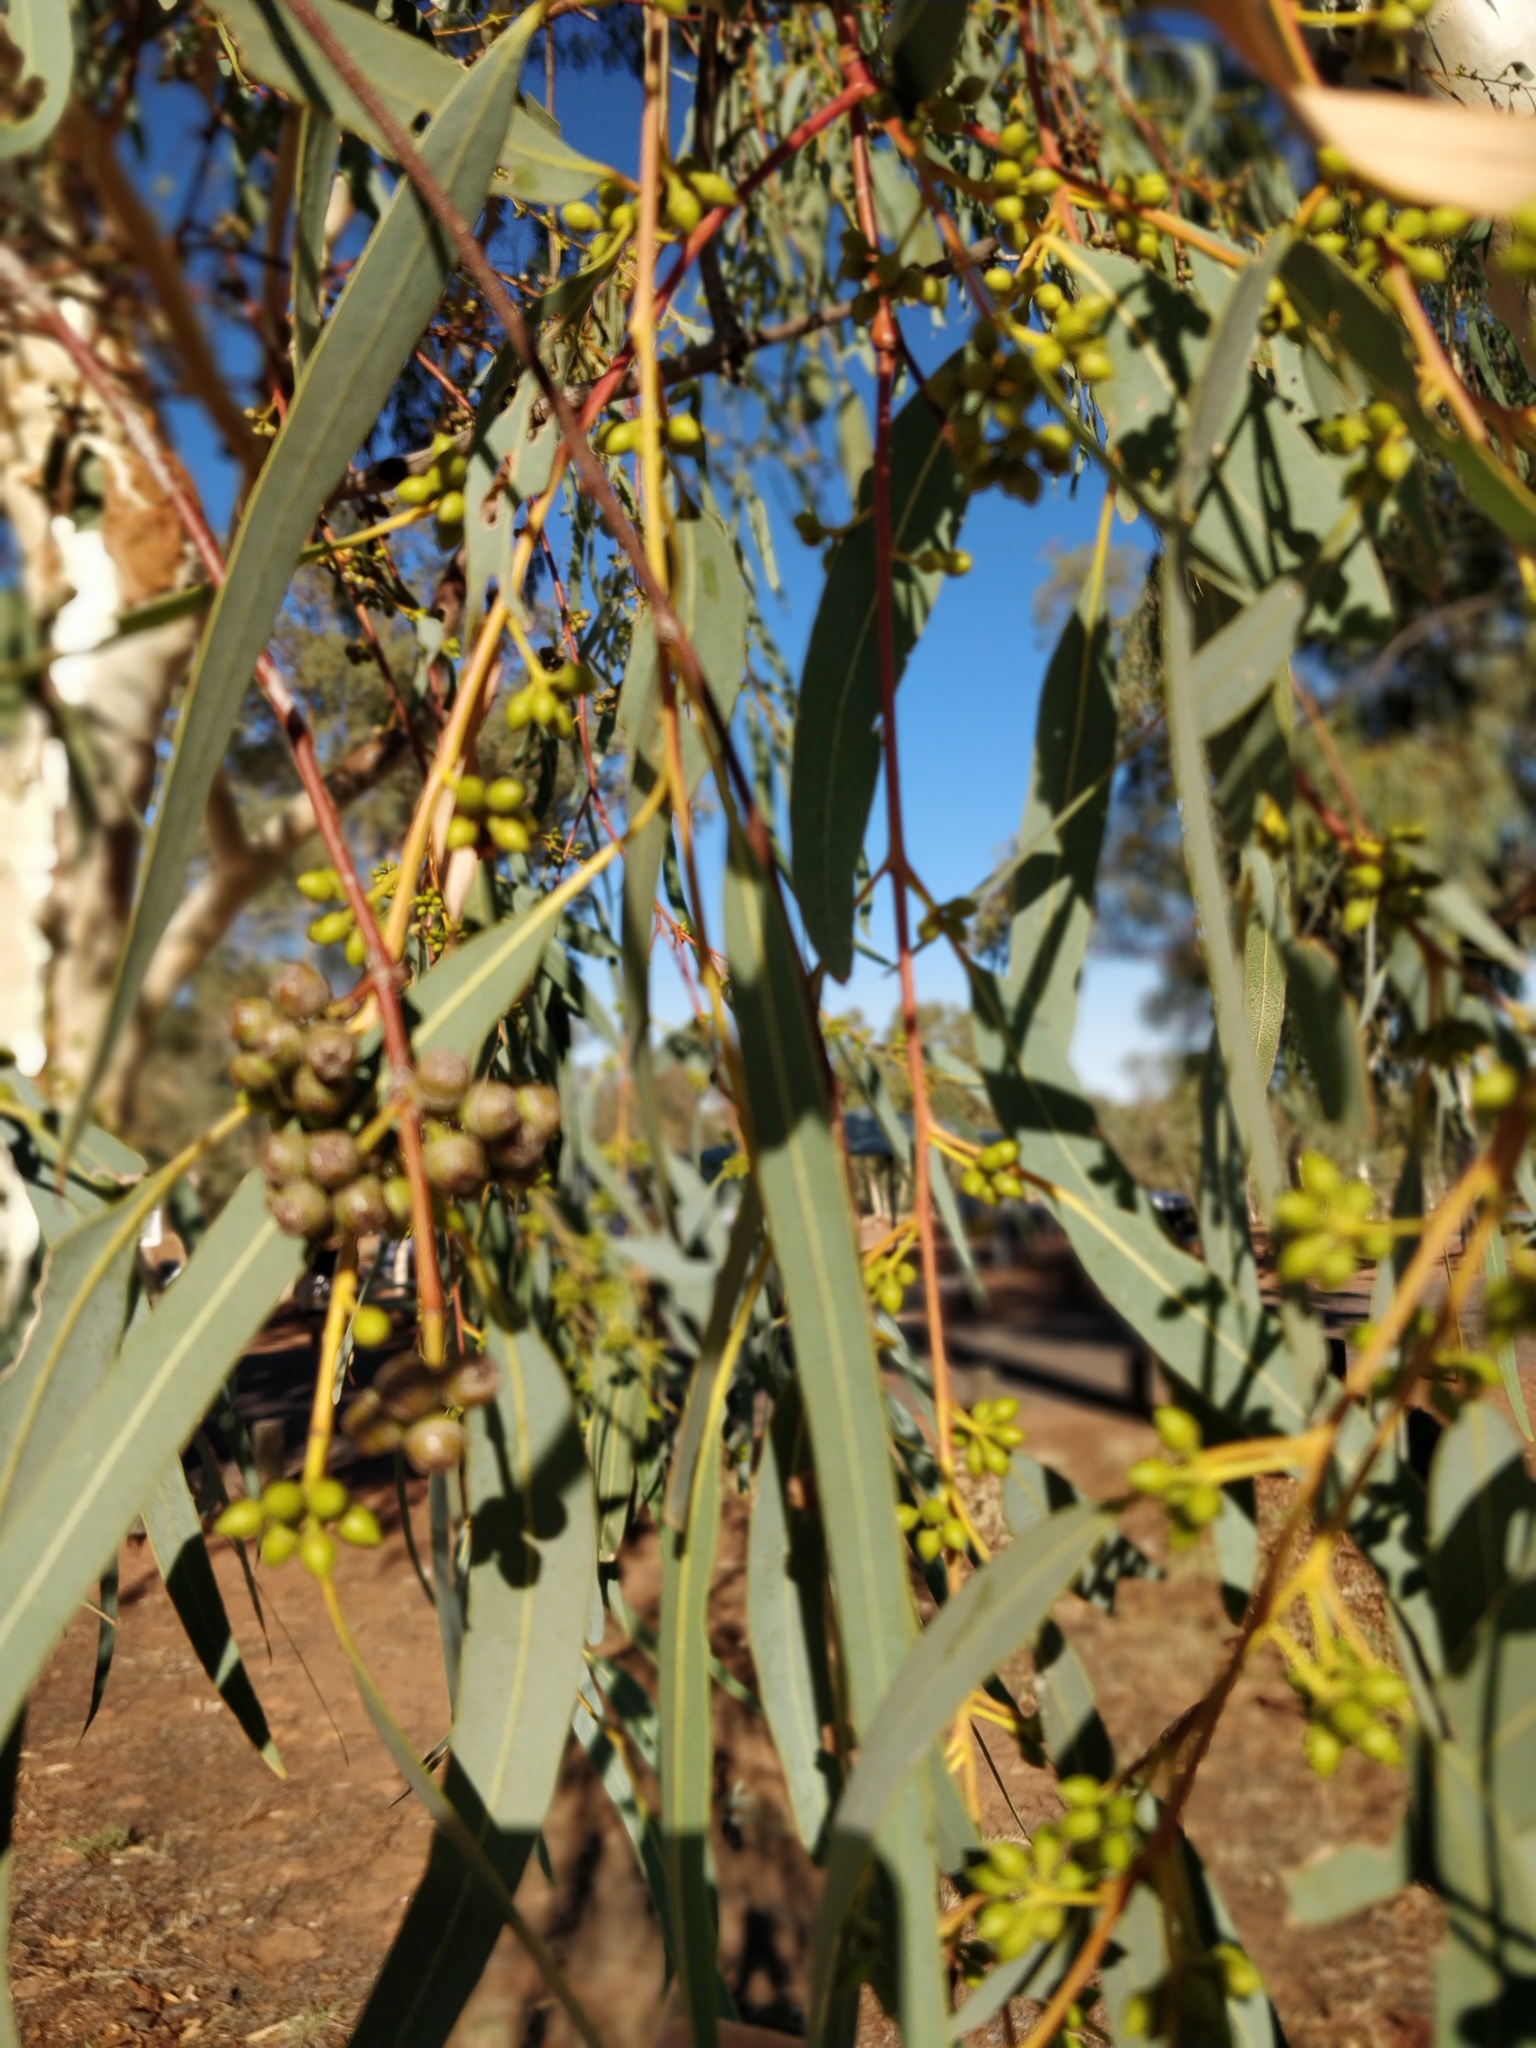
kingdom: Plantae
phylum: Tracheophyta
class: Magnoliopsida
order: Myrtales
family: Myrtaceae
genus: Eucalyptus
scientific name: Eucalyptus camaldulensis
